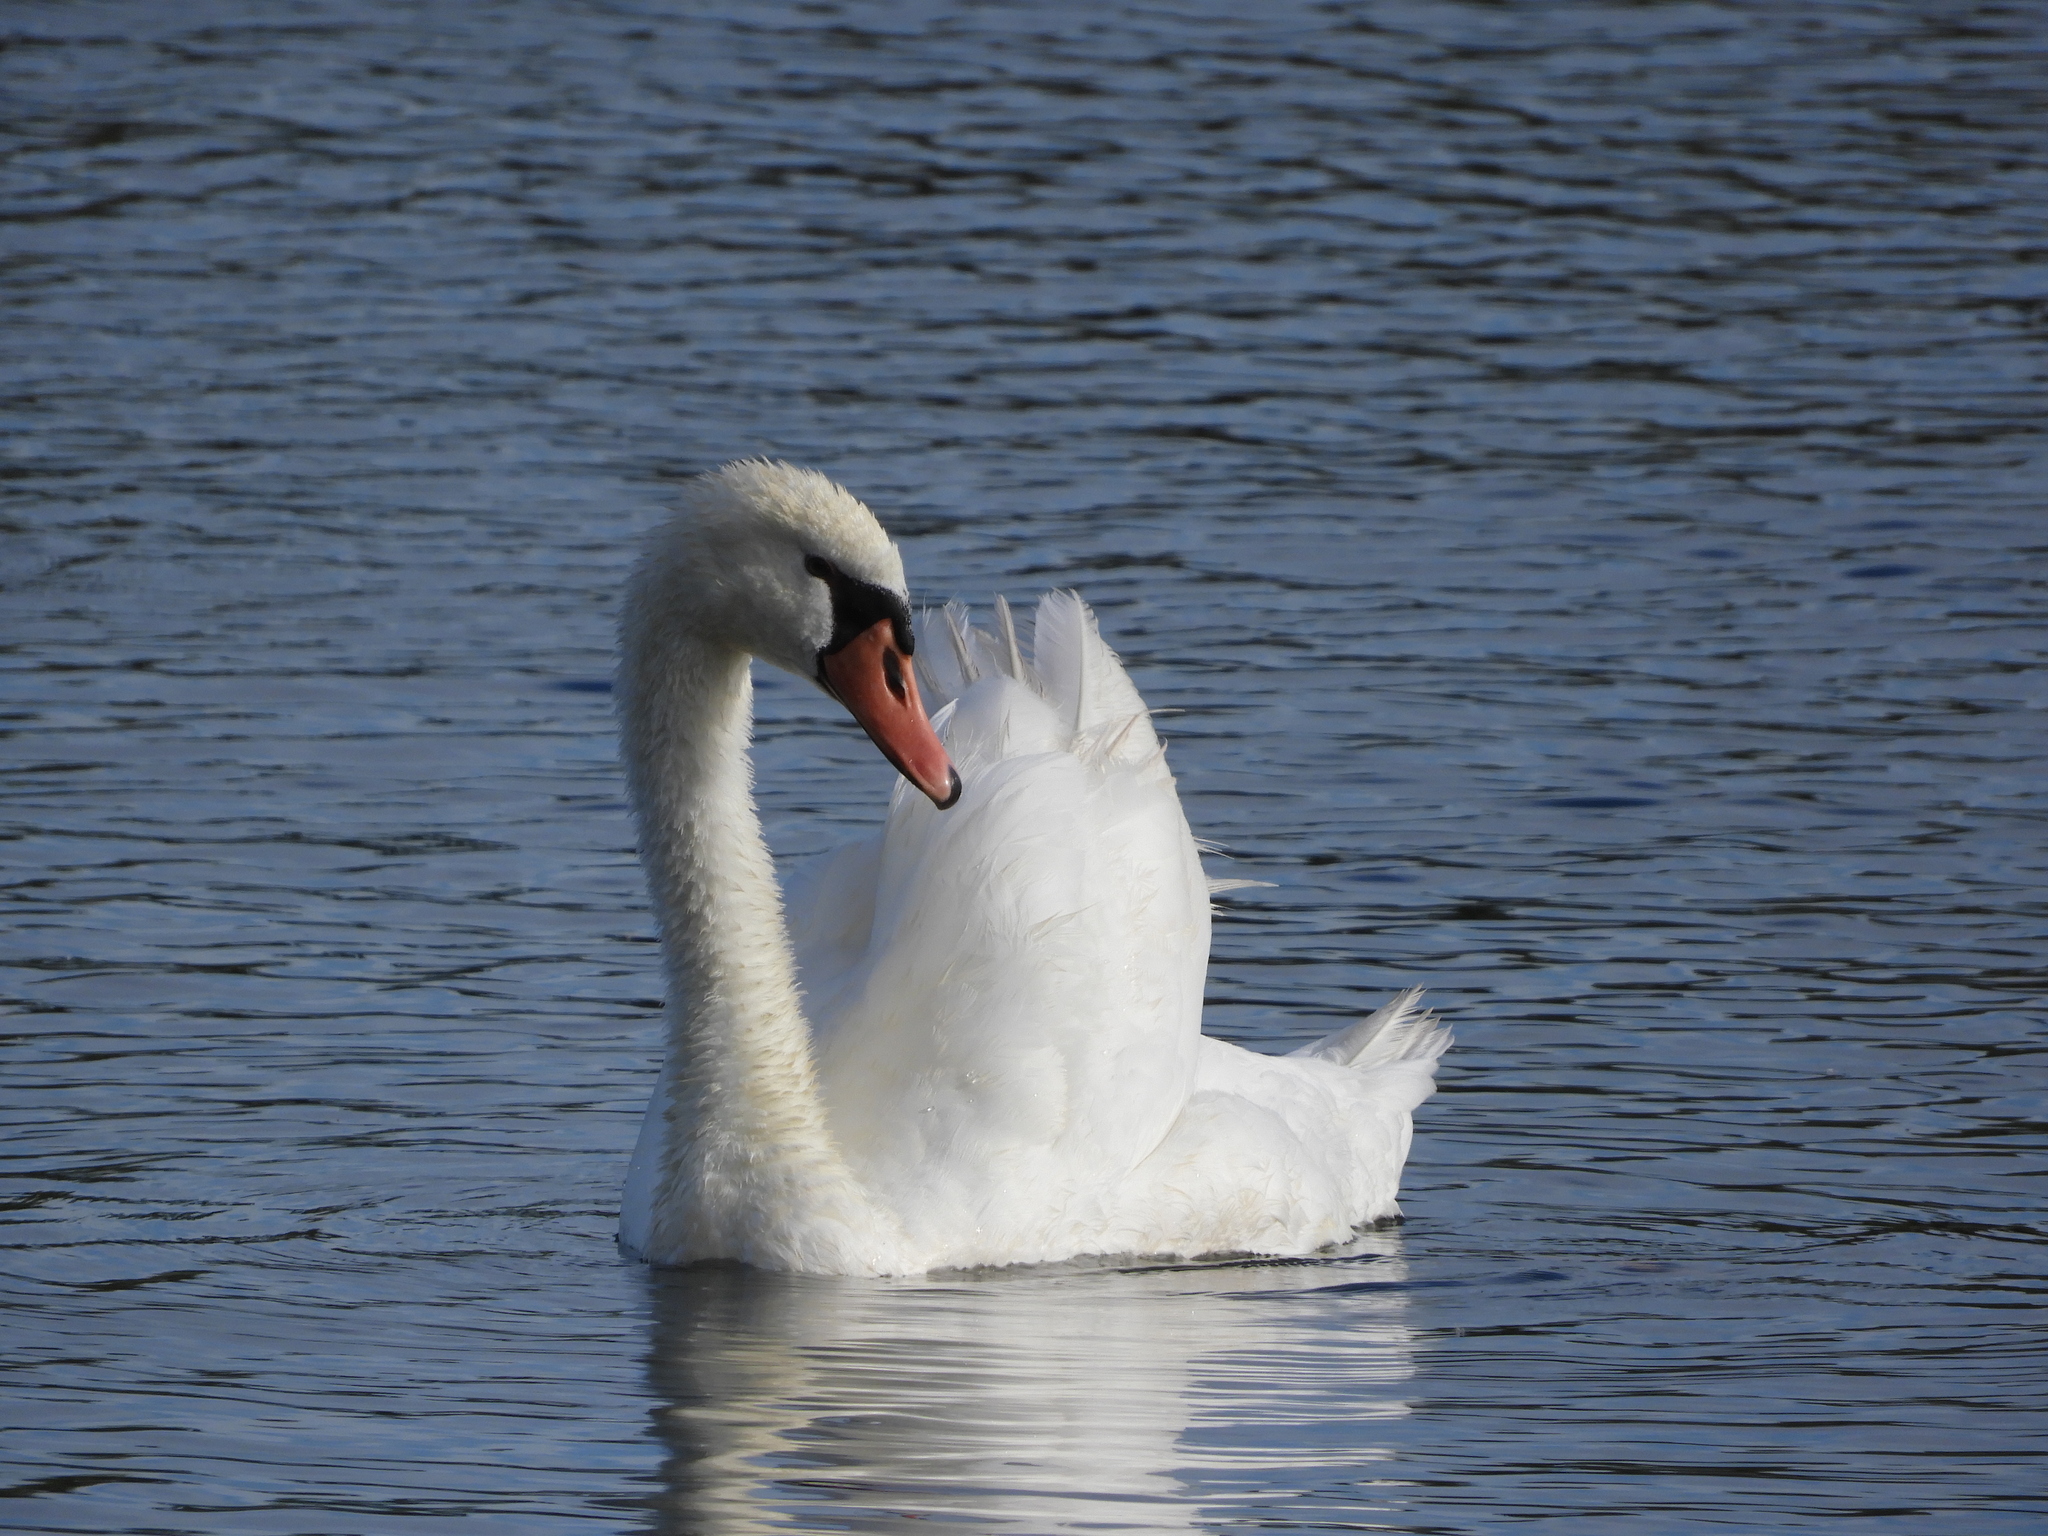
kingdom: Animalia
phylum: Chordata
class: Aves
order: Anseriformes
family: Anatidae
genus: Cygnus
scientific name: Cygnus olor
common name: Mute swan
